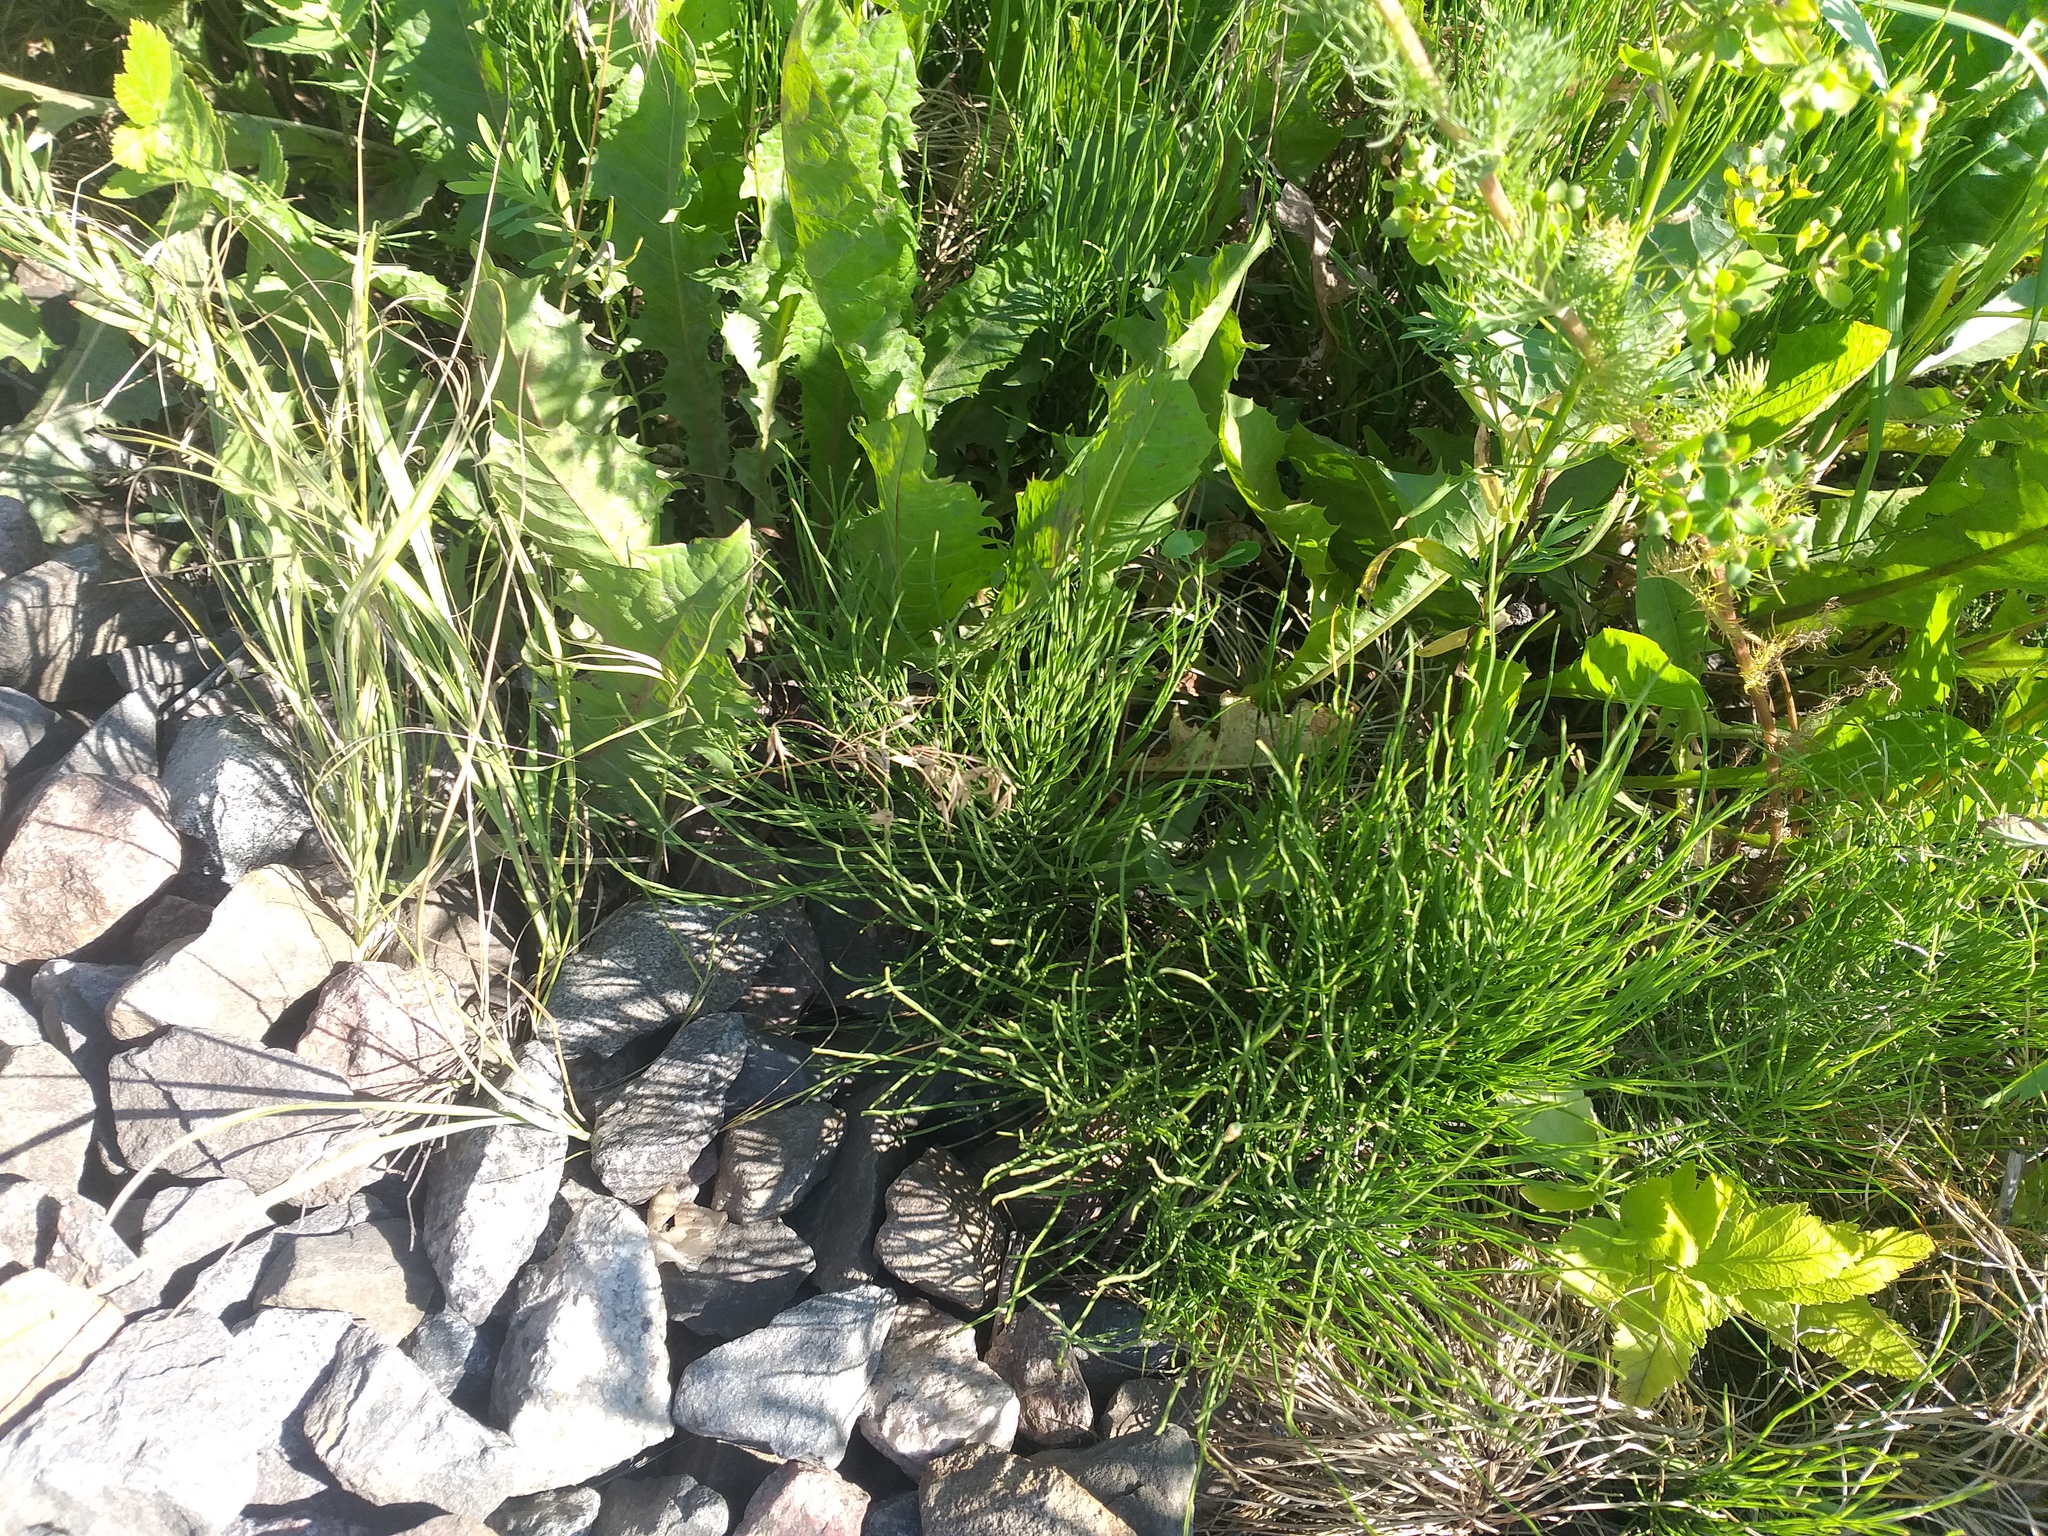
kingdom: Plantae
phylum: Tracheophyta
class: Polypodiopsida
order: Equisetales
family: Equisetaceae
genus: Equisetum
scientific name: Equisetum arvense
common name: Field horsetail
